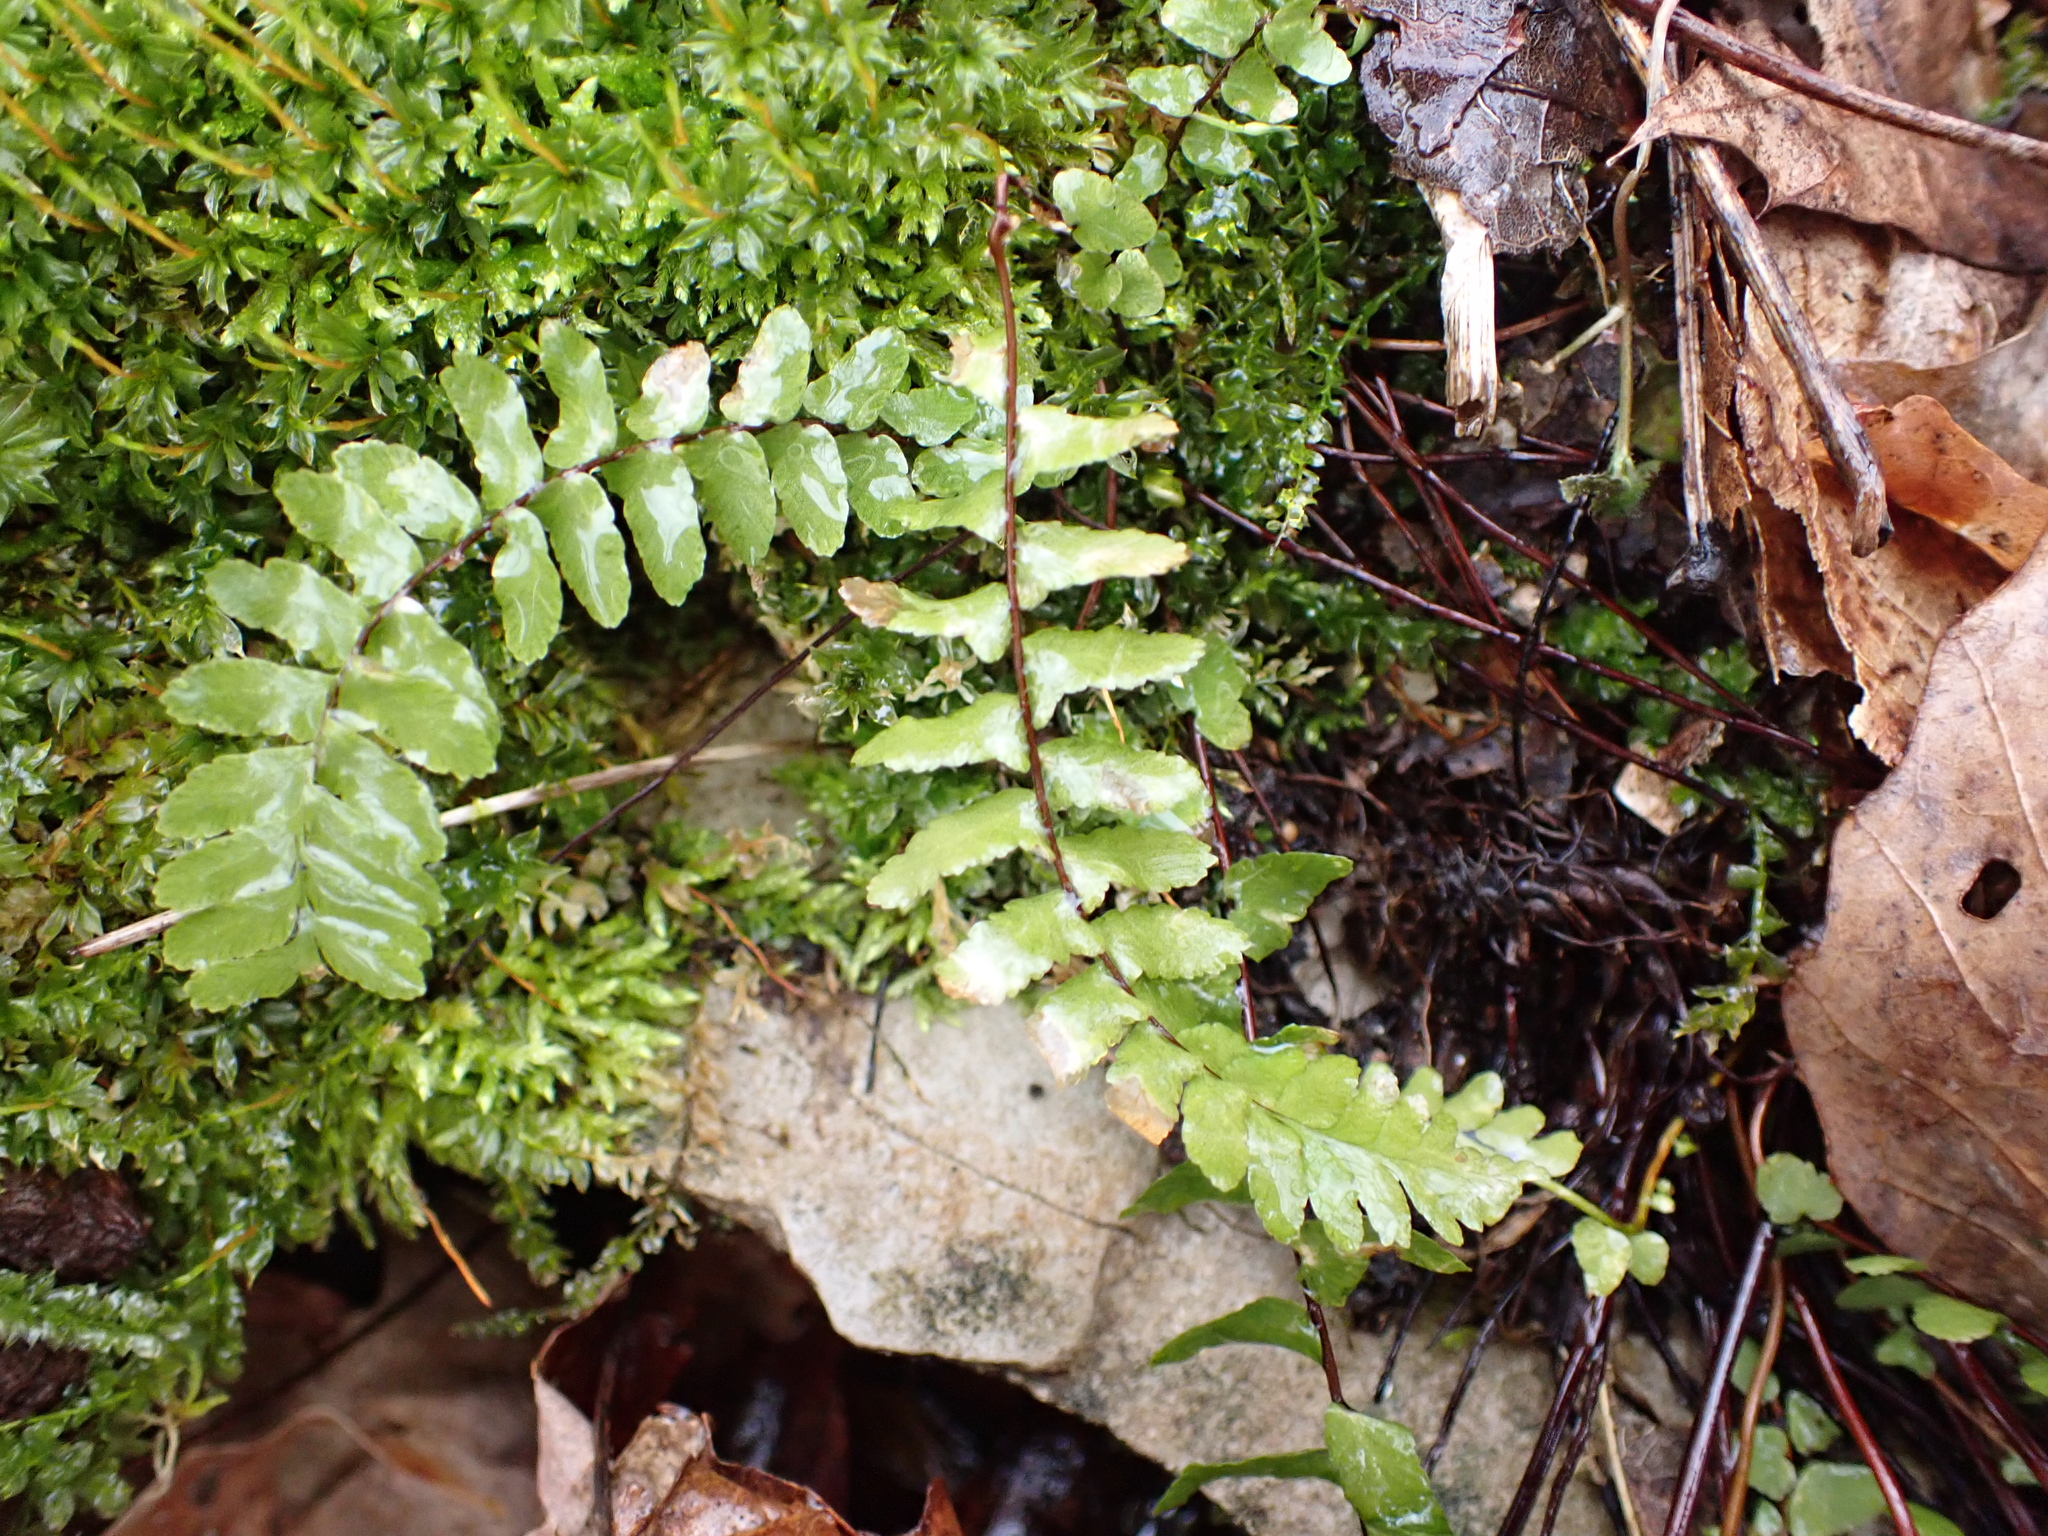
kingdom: Plantae
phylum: Tracheophyta
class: Polypodiopsida
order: Polypodiales
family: Aspleniaceae
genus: Asplenium
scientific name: Asplenium platyneuron
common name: Ebony spleenwort
